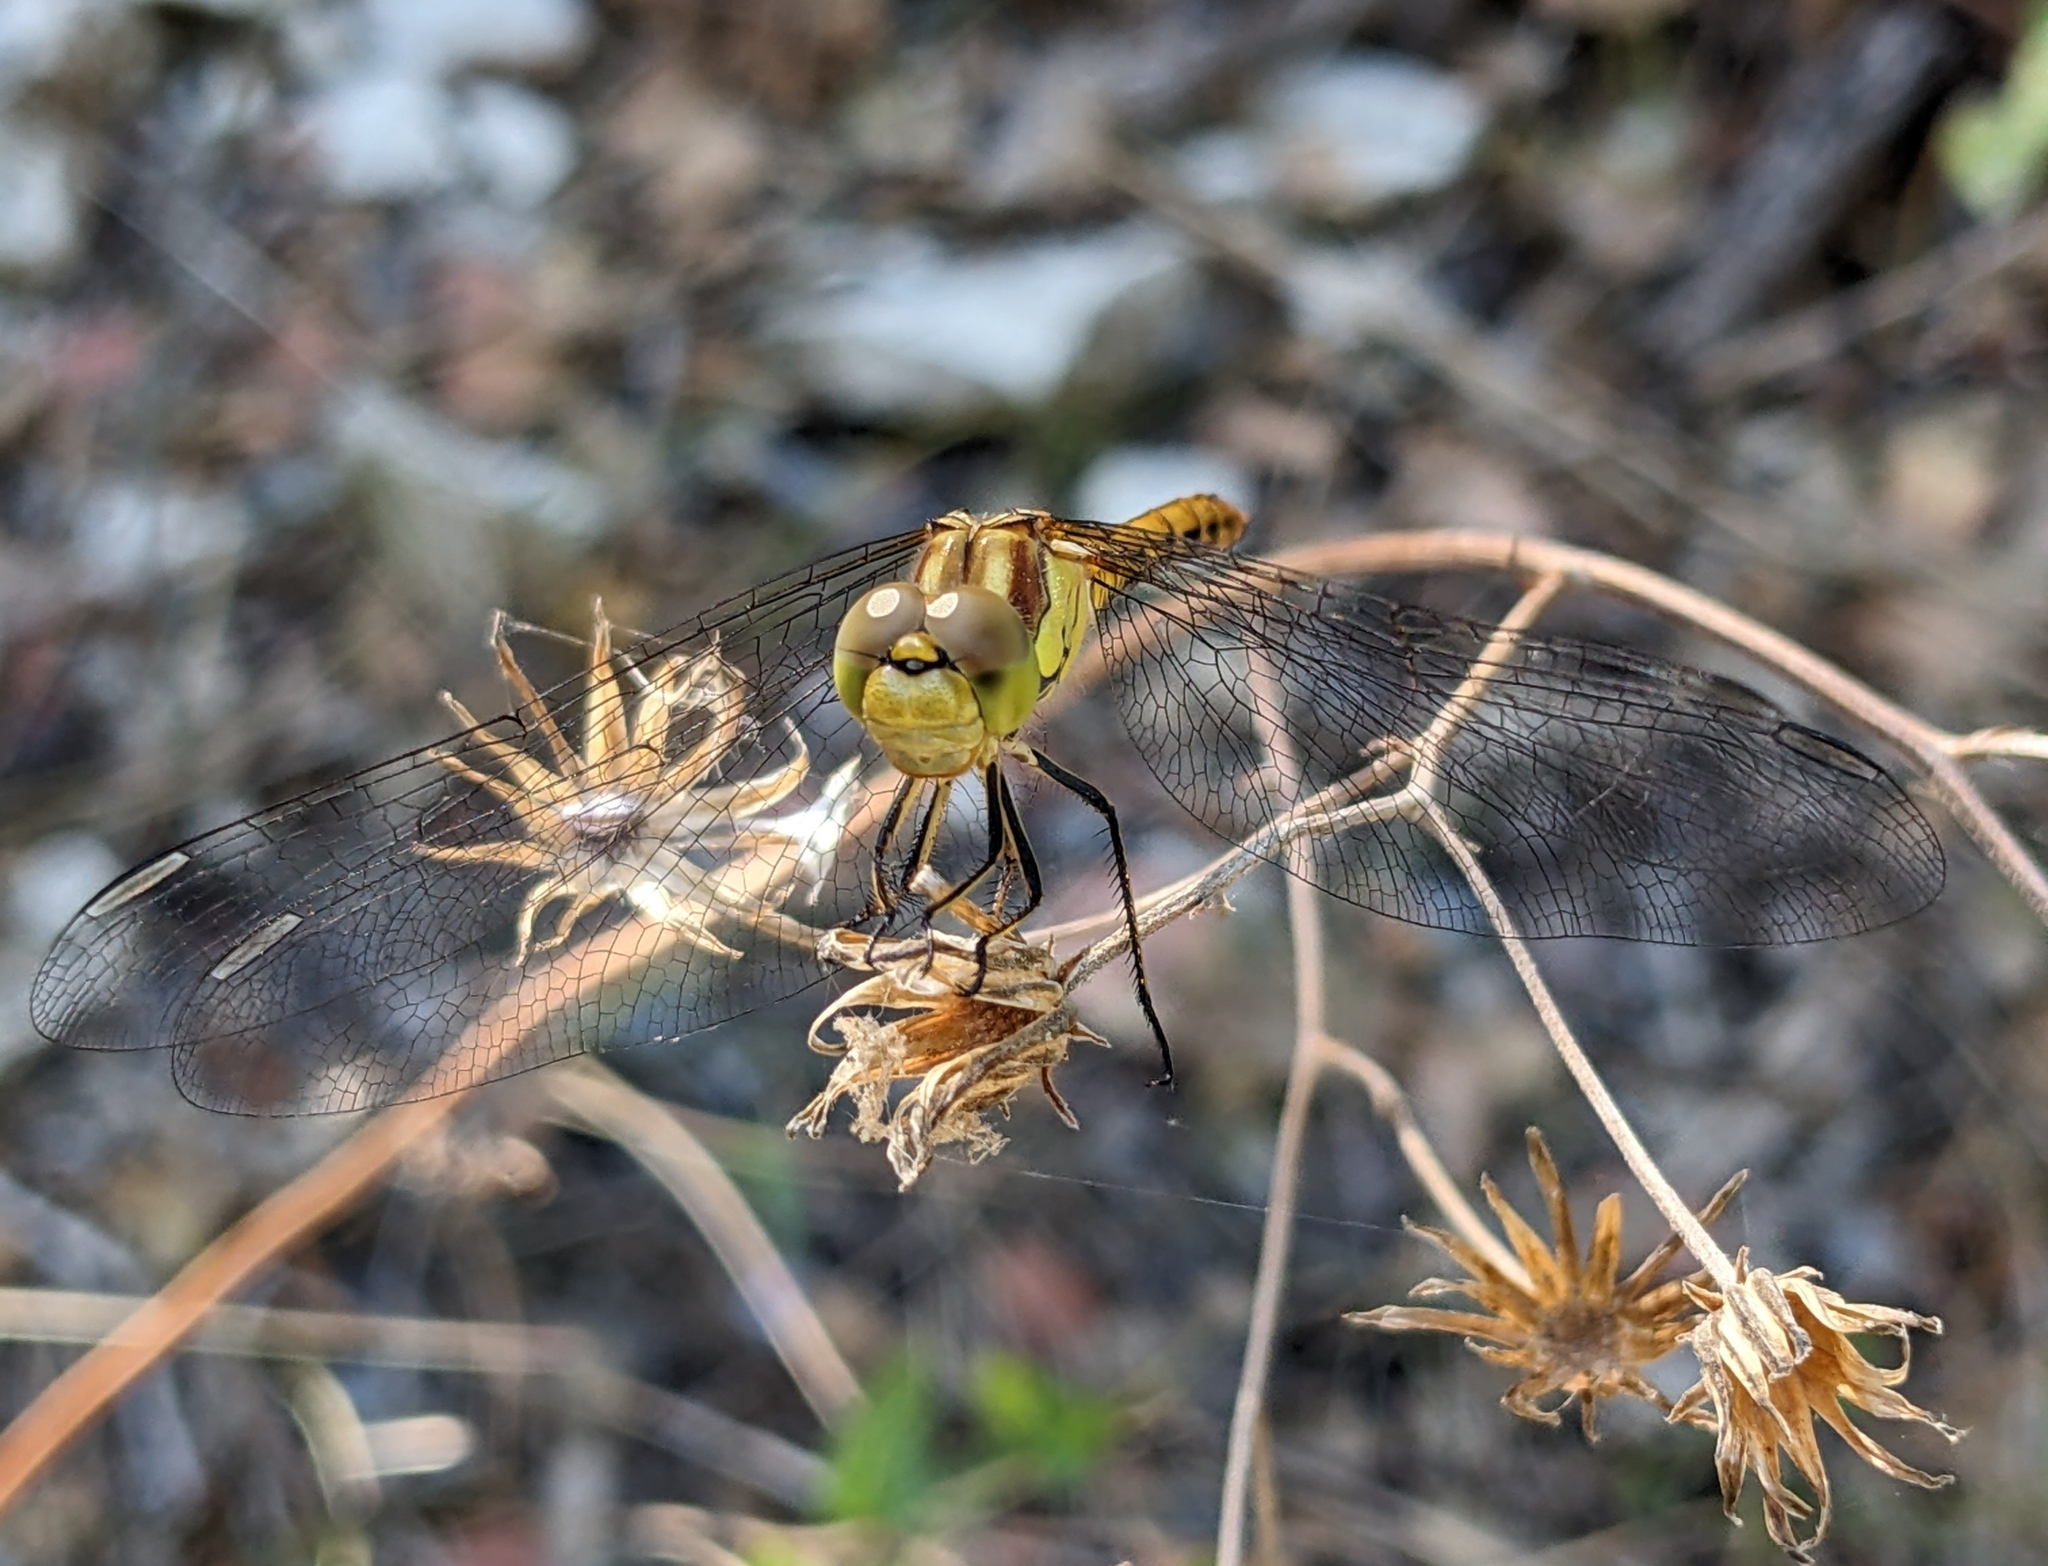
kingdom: Animalia
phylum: Arthropoda
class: Insecta
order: Odonata
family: Libellulidae
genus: Sympetrum
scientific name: Sympetrum striolatum
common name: Common darter
